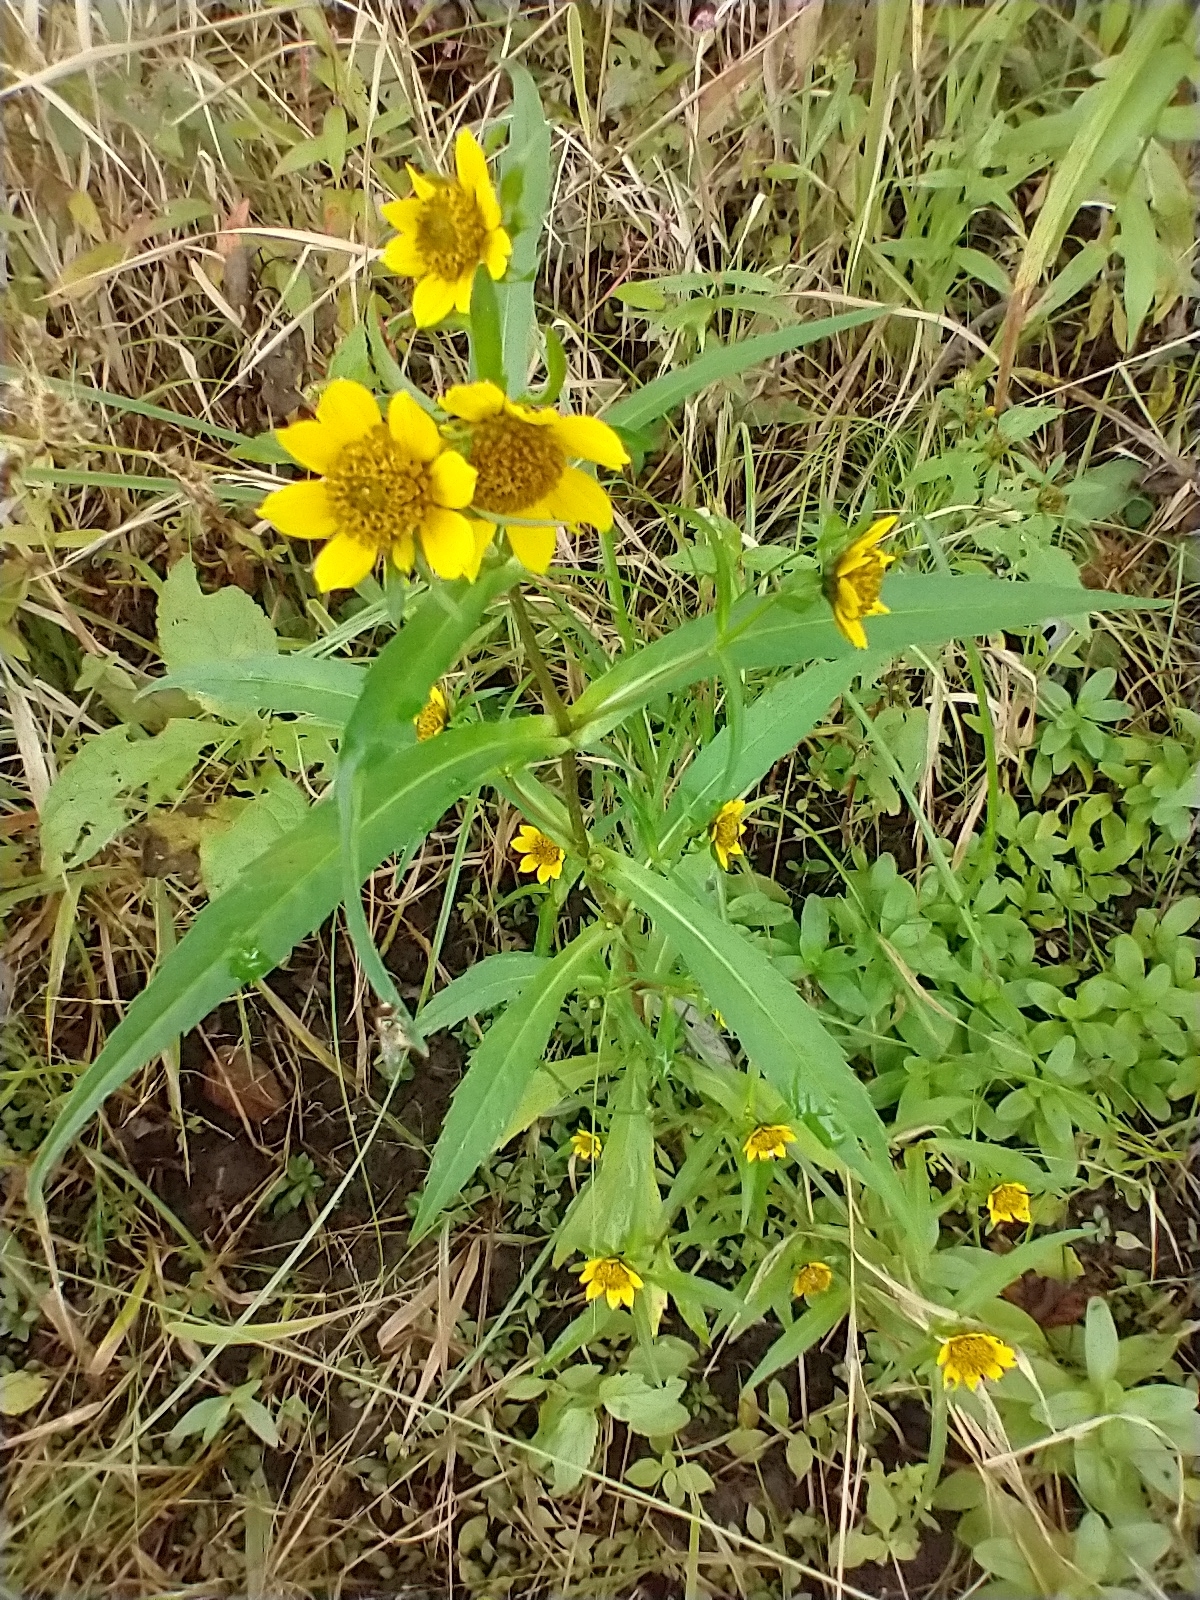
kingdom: Plantae
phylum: Tracheophyta
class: Magnoliopsida
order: Asterales
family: Asteraceae
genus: Bidens
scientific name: Bidens cernua
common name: Nodding bur-marigold
